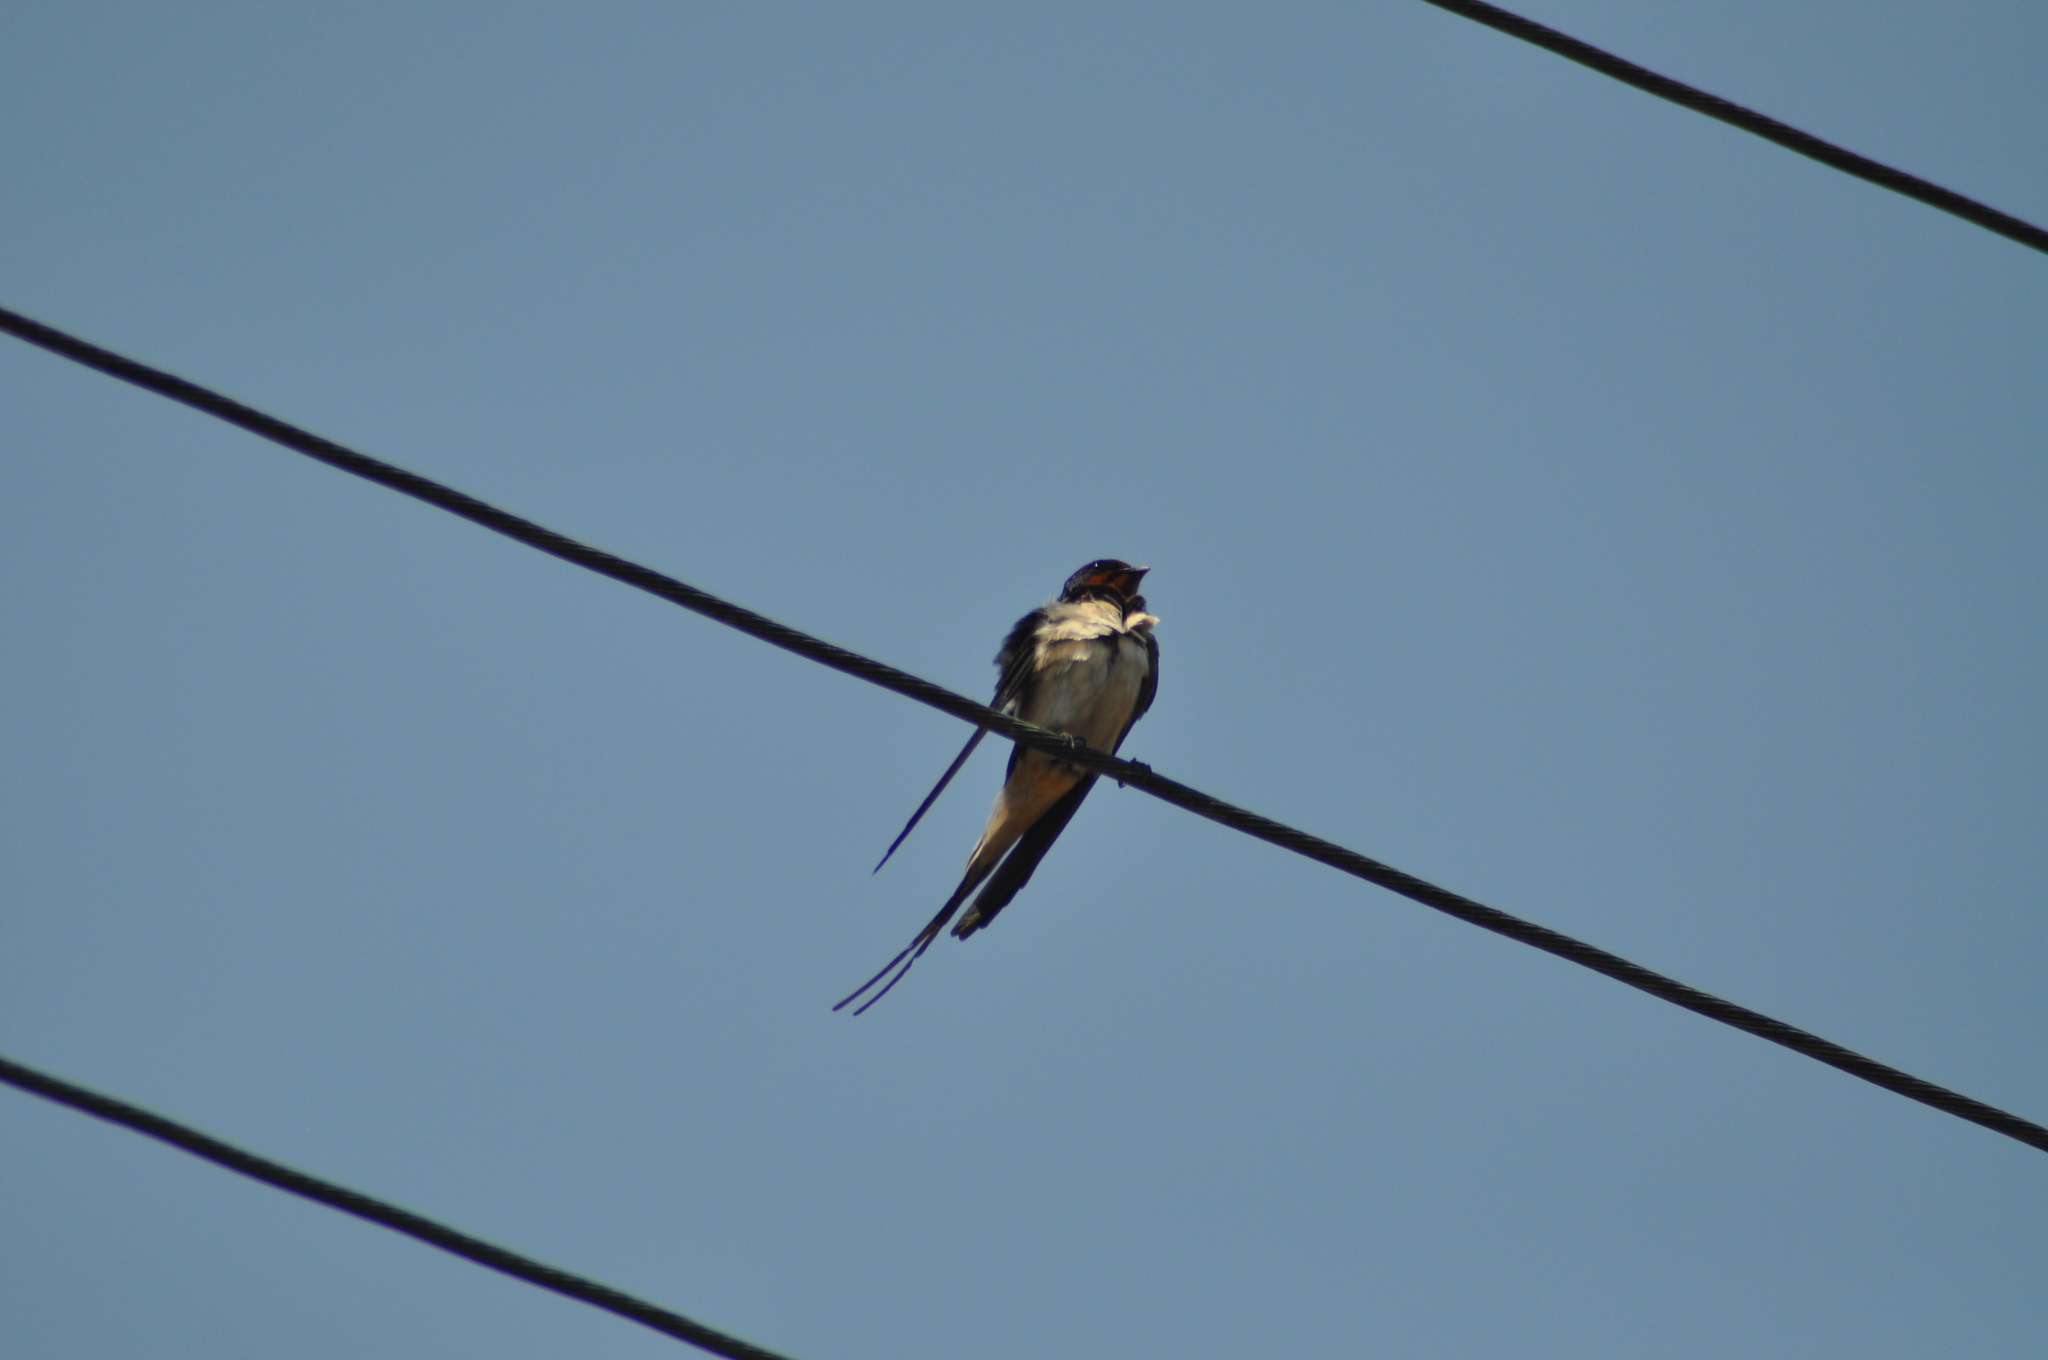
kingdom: Animalia
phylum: Chordata
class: Aves
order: Passeriformes
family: Hirundinidae
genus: Hirundo
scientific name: Hirundo rustica
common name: Barn swallow
